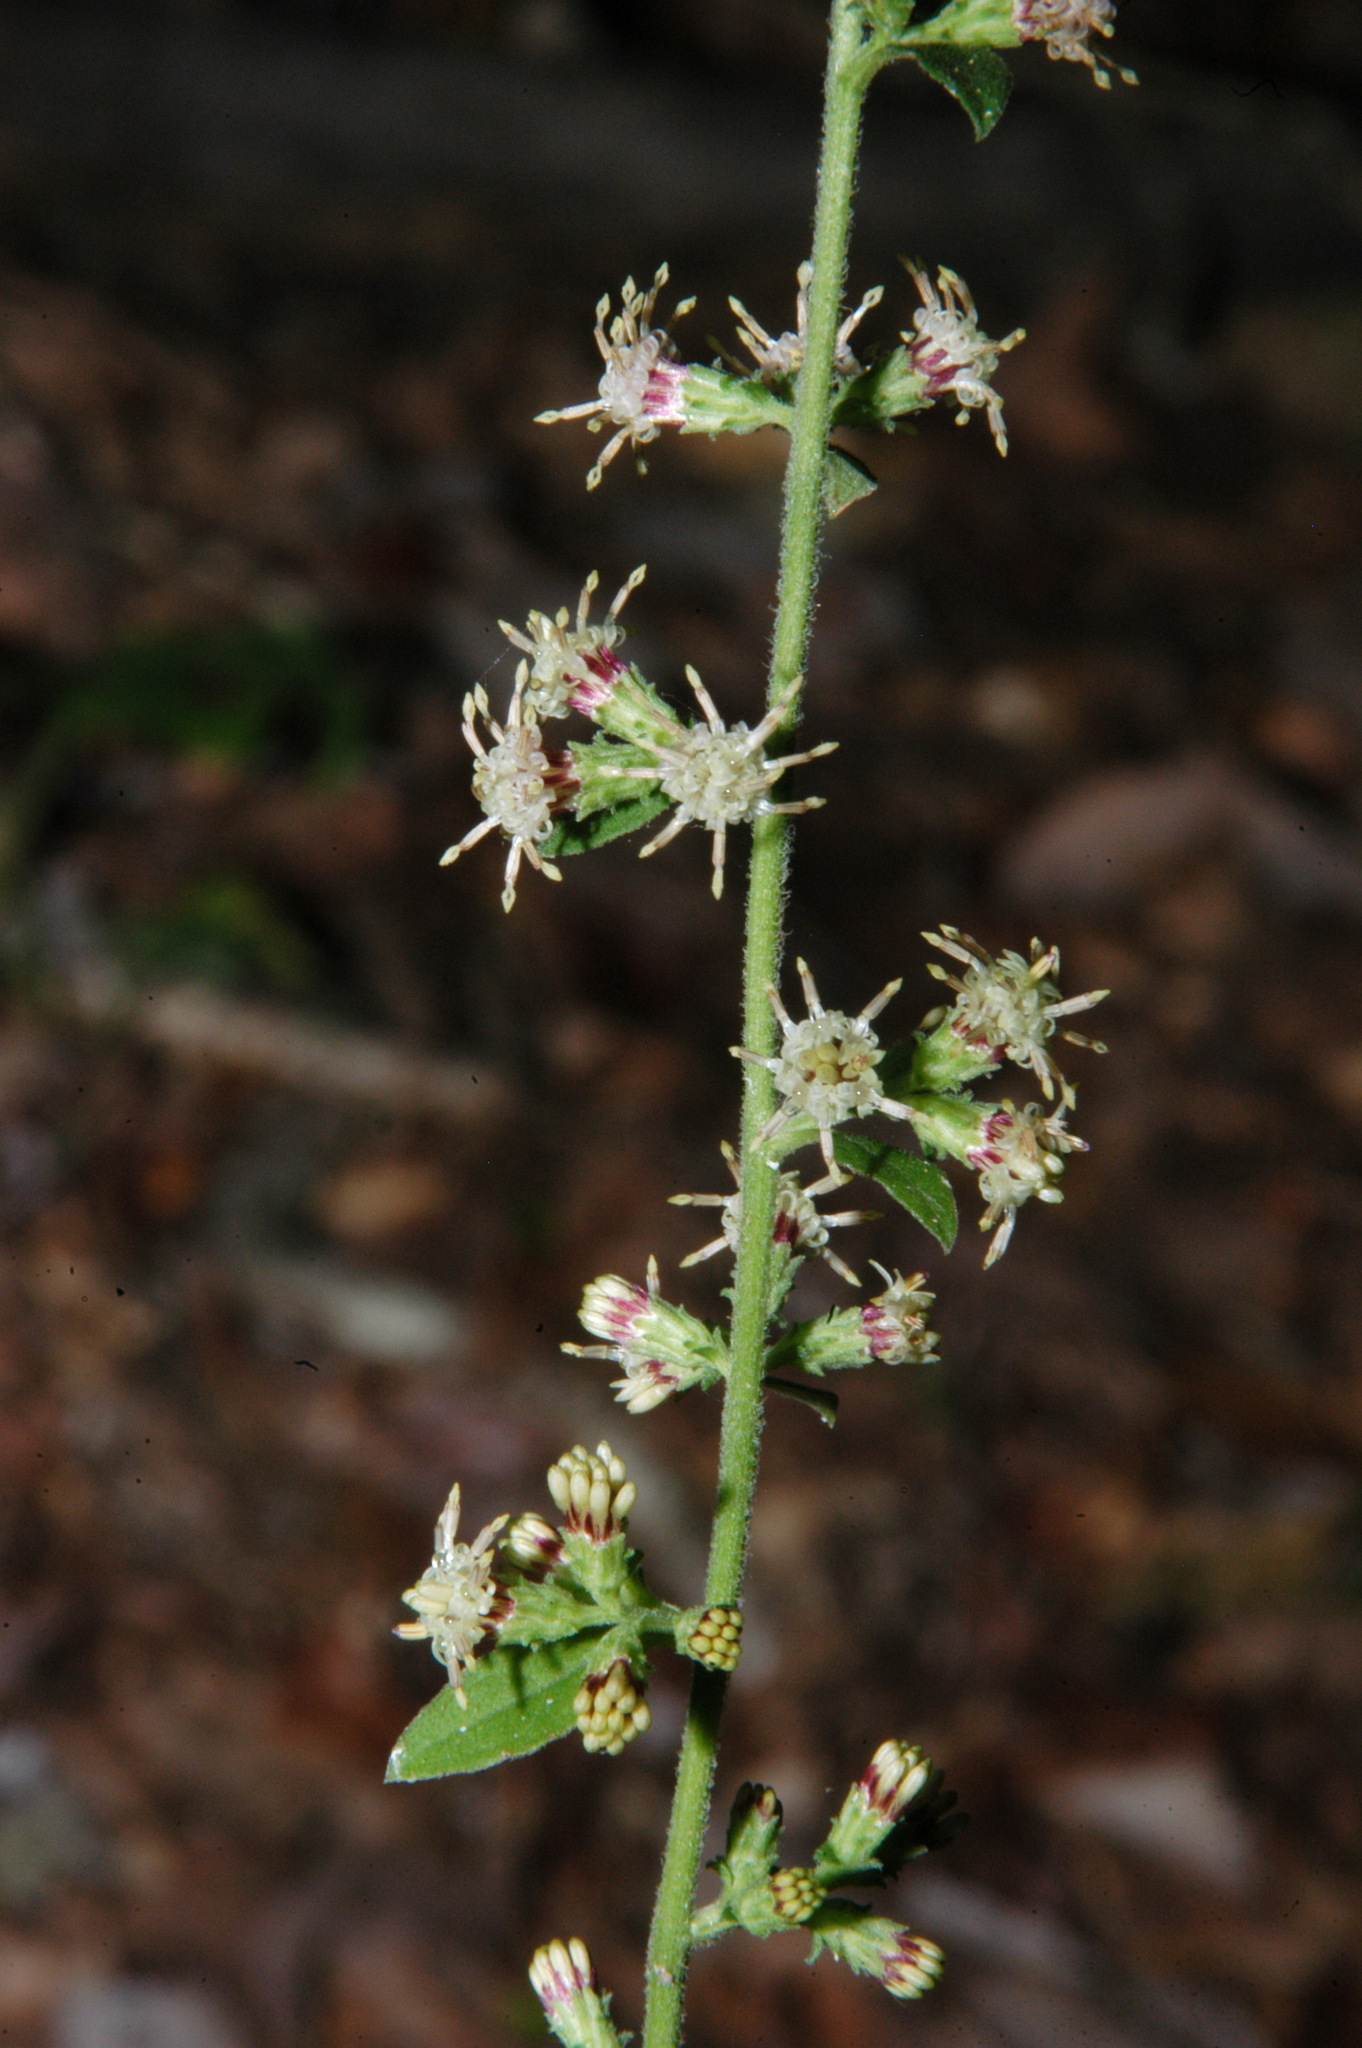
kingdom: Plantae
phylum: Tracheophyta
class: Magnoliopsida
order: Asterales
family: Asteraceae
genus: Solidago
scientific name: Solidago discoidea
